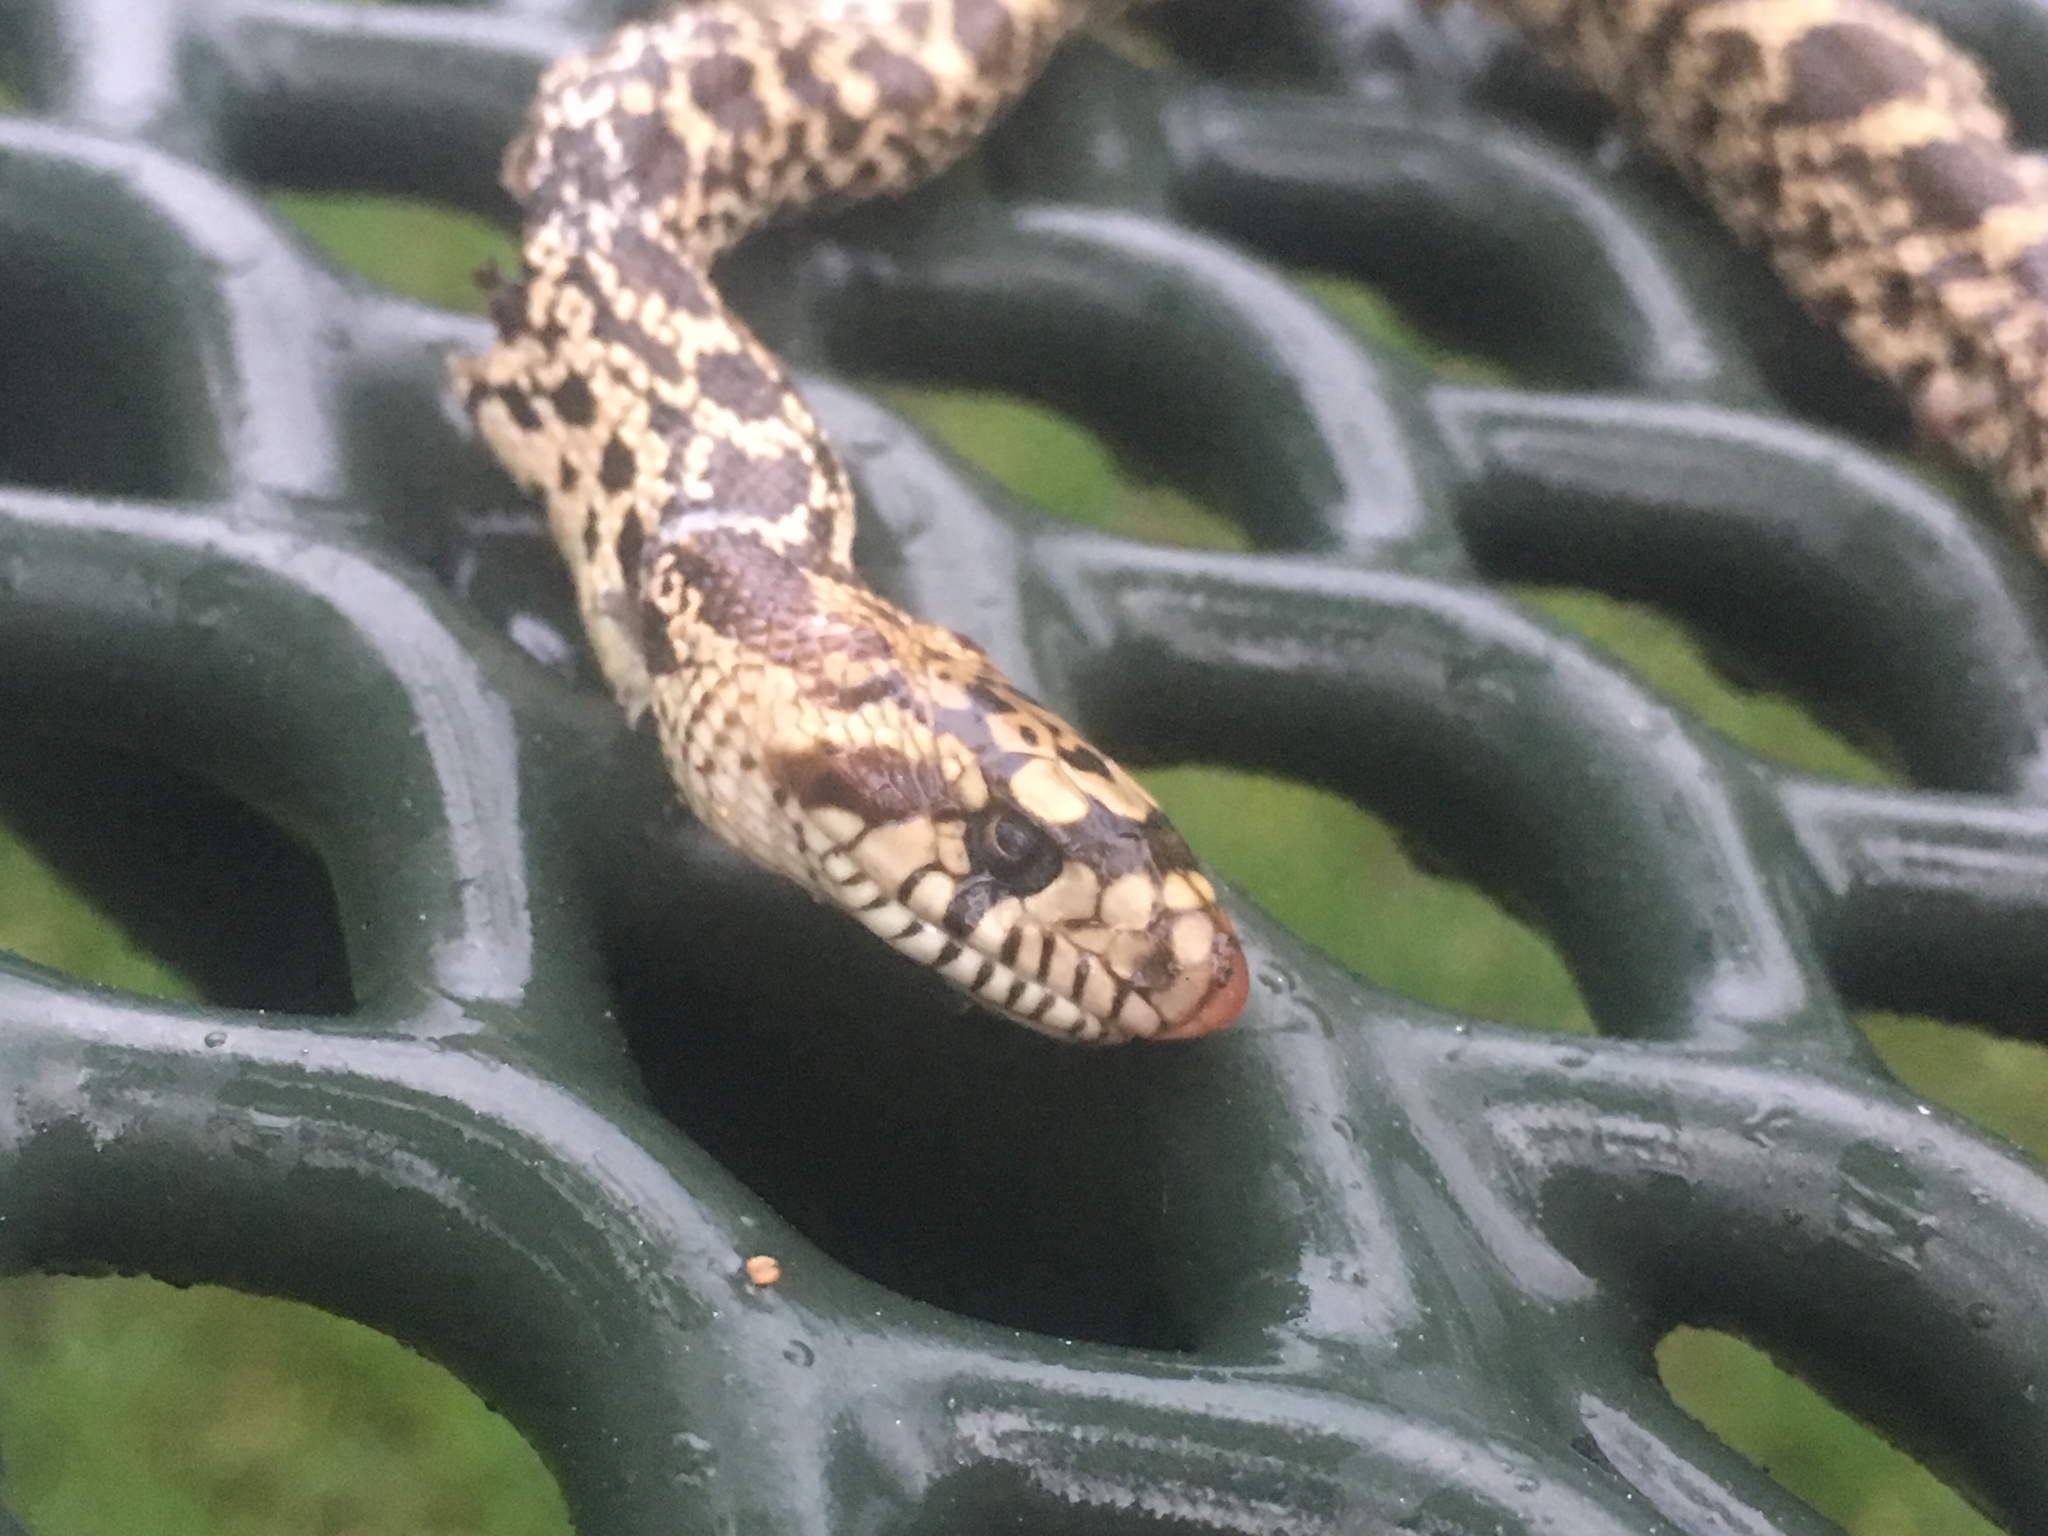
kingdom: Animalia
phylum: Chordata
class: Squamata
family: Colubridae
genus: Pituophis
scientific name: Pituophis catenifer
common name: Gopher snake
